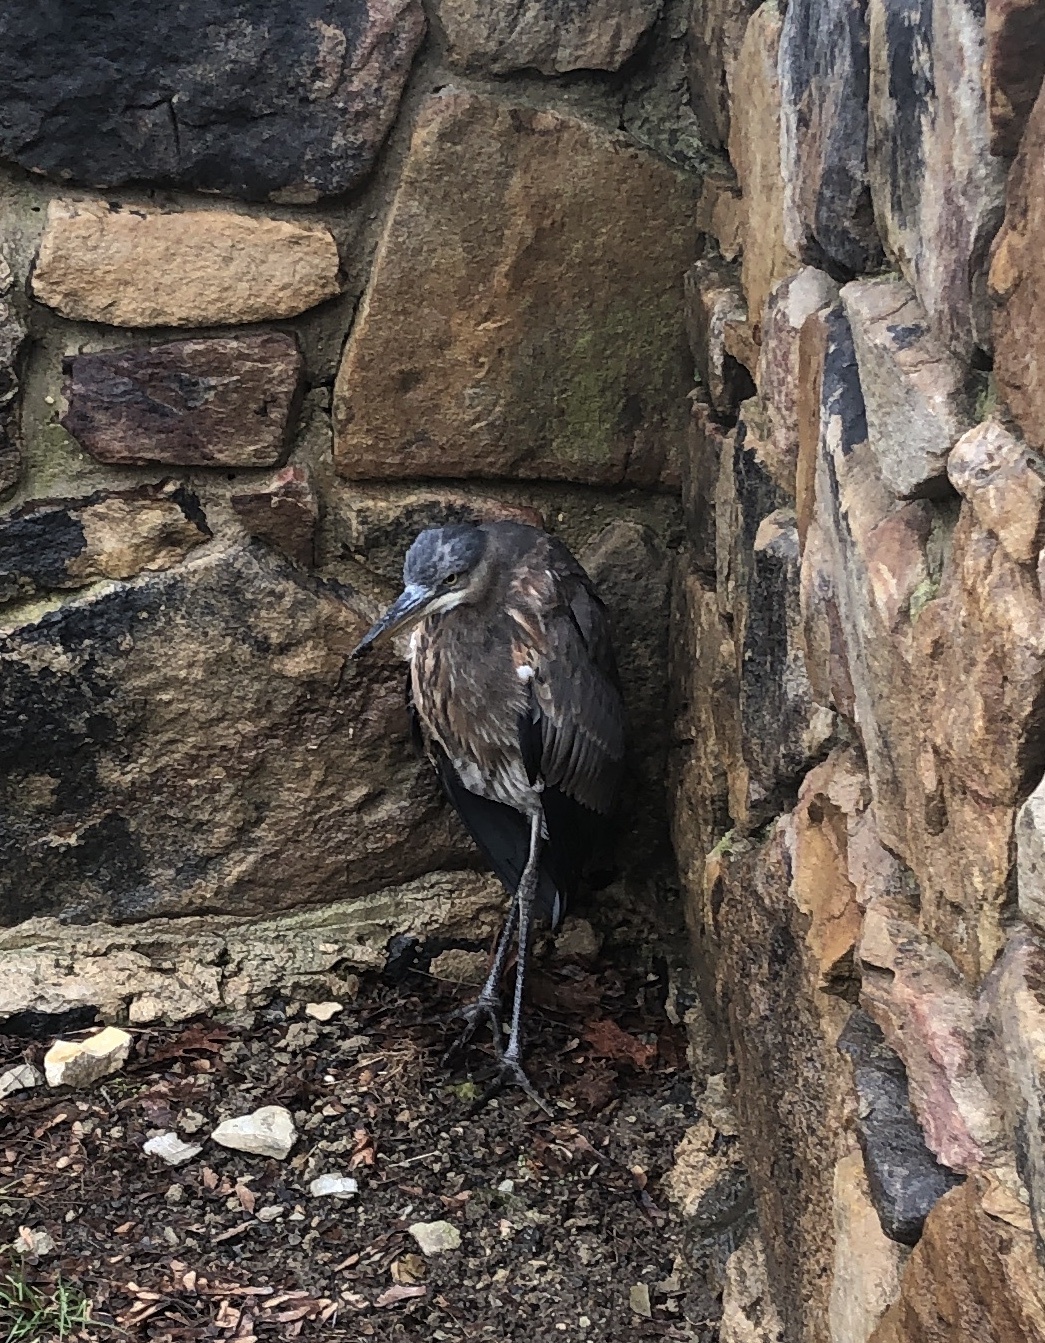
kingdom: Animalia
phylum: Chordata
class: Aves
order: Pelecaniformes
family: Ardeidae
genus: Ardea
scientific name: Ardea herodias
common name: Great blue heron
